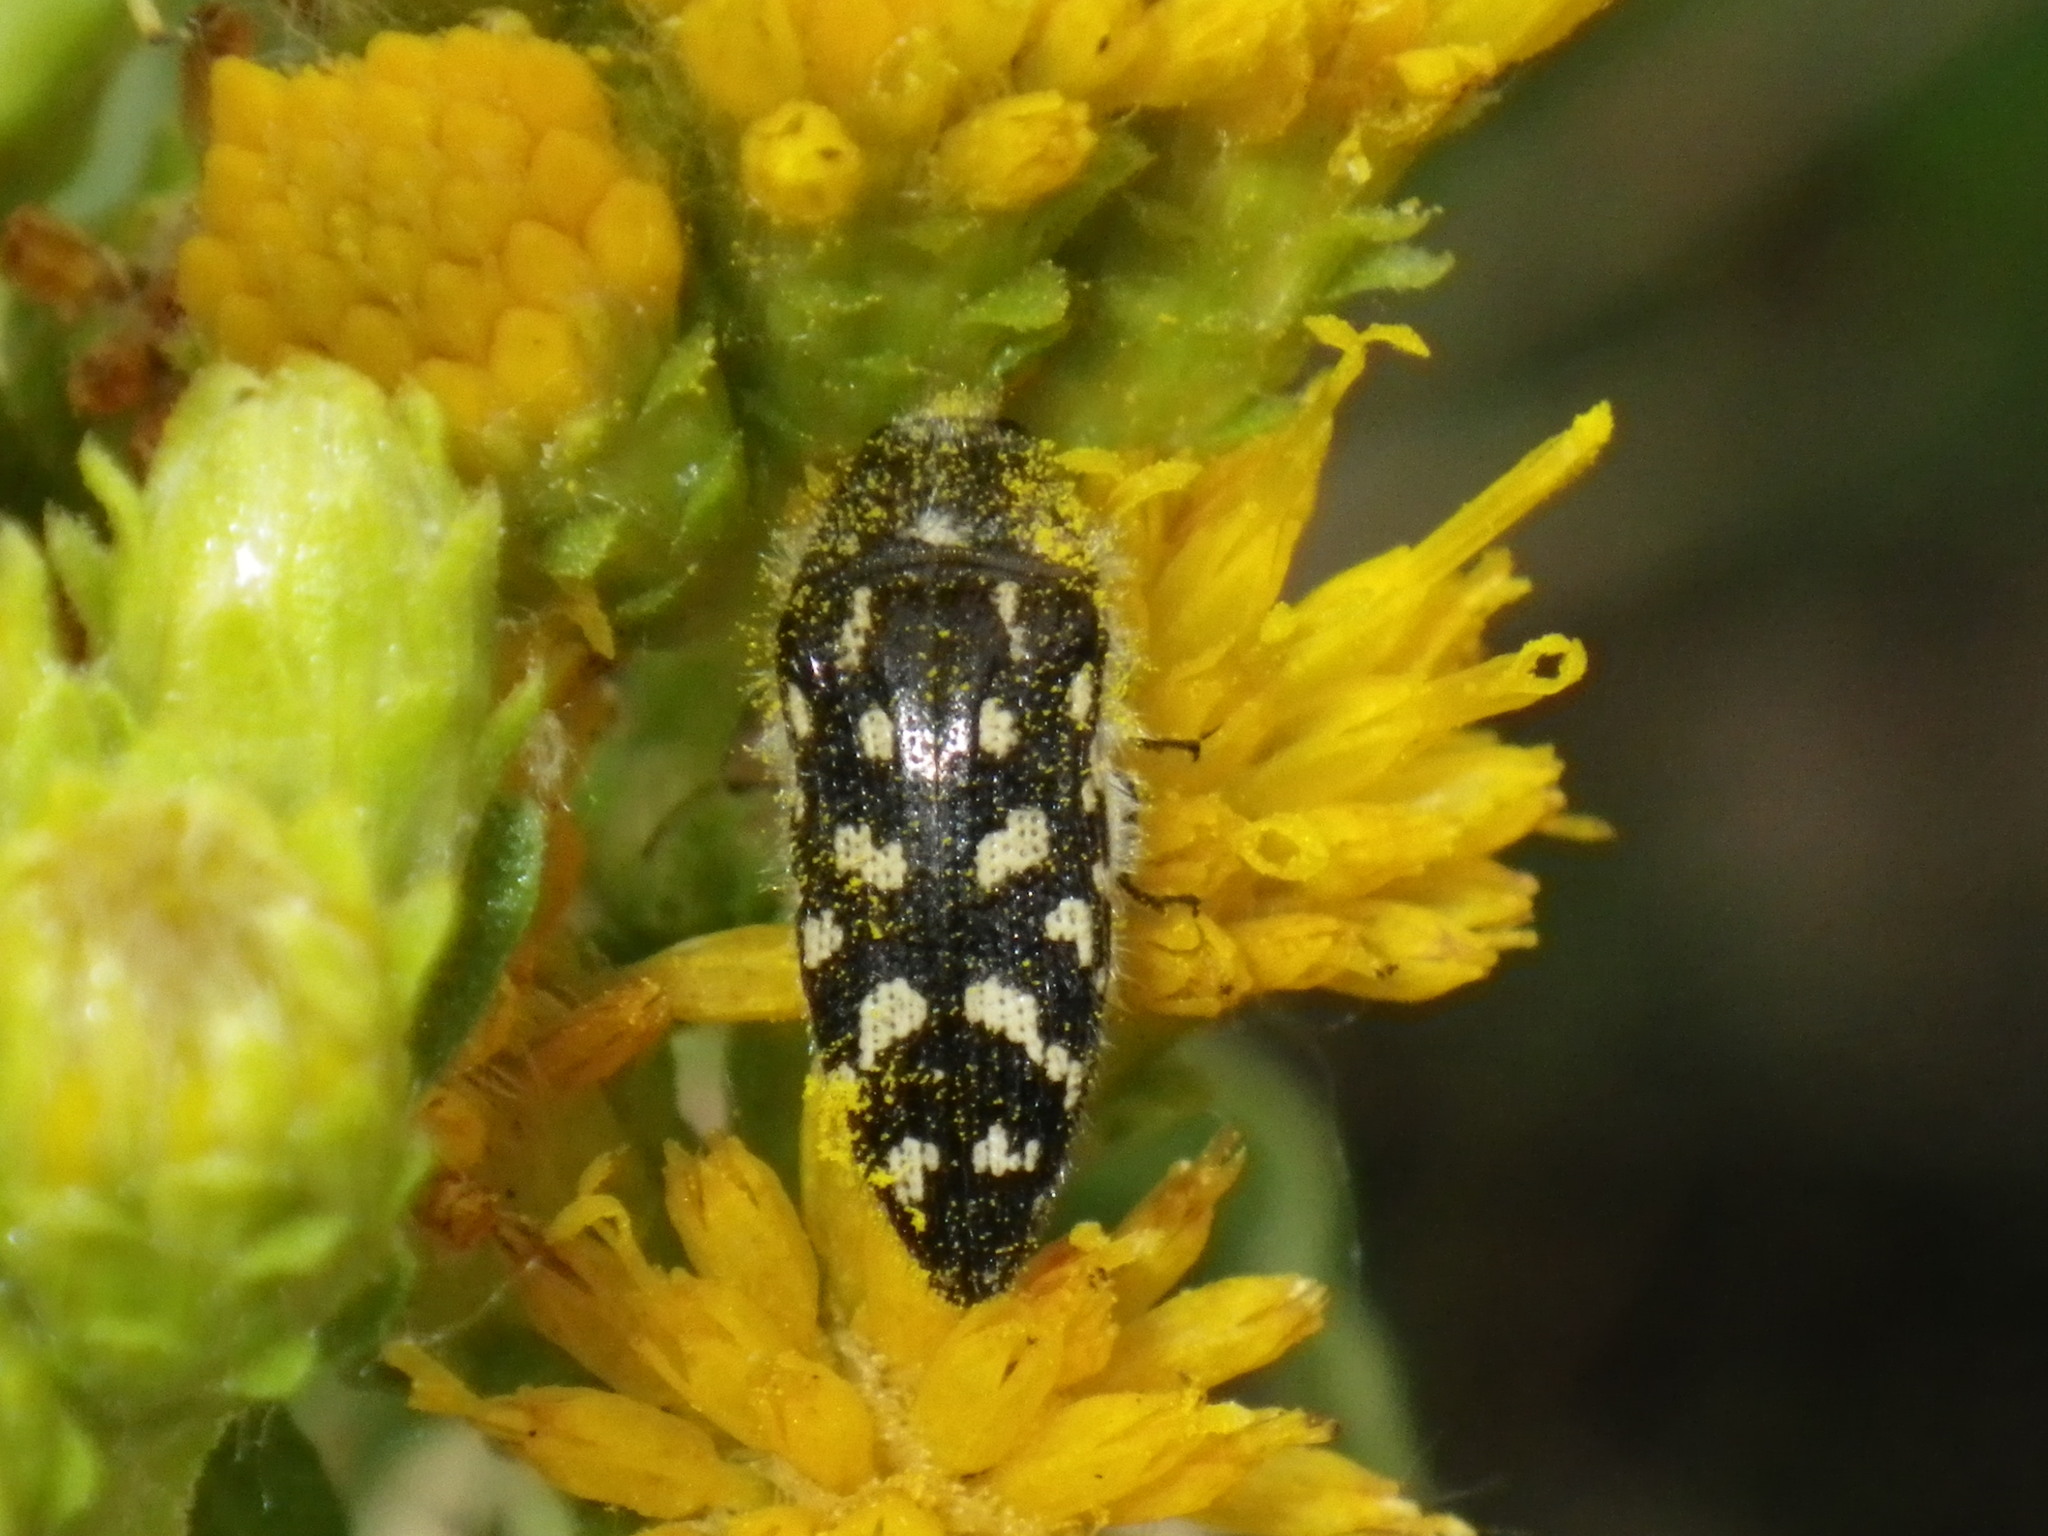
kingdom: Animalia
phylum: Arthropoda
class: Insecta
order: Coleoptera
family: Buprestidae
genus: Acmaeodera
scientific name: Acmaeodera bacchariphaga
